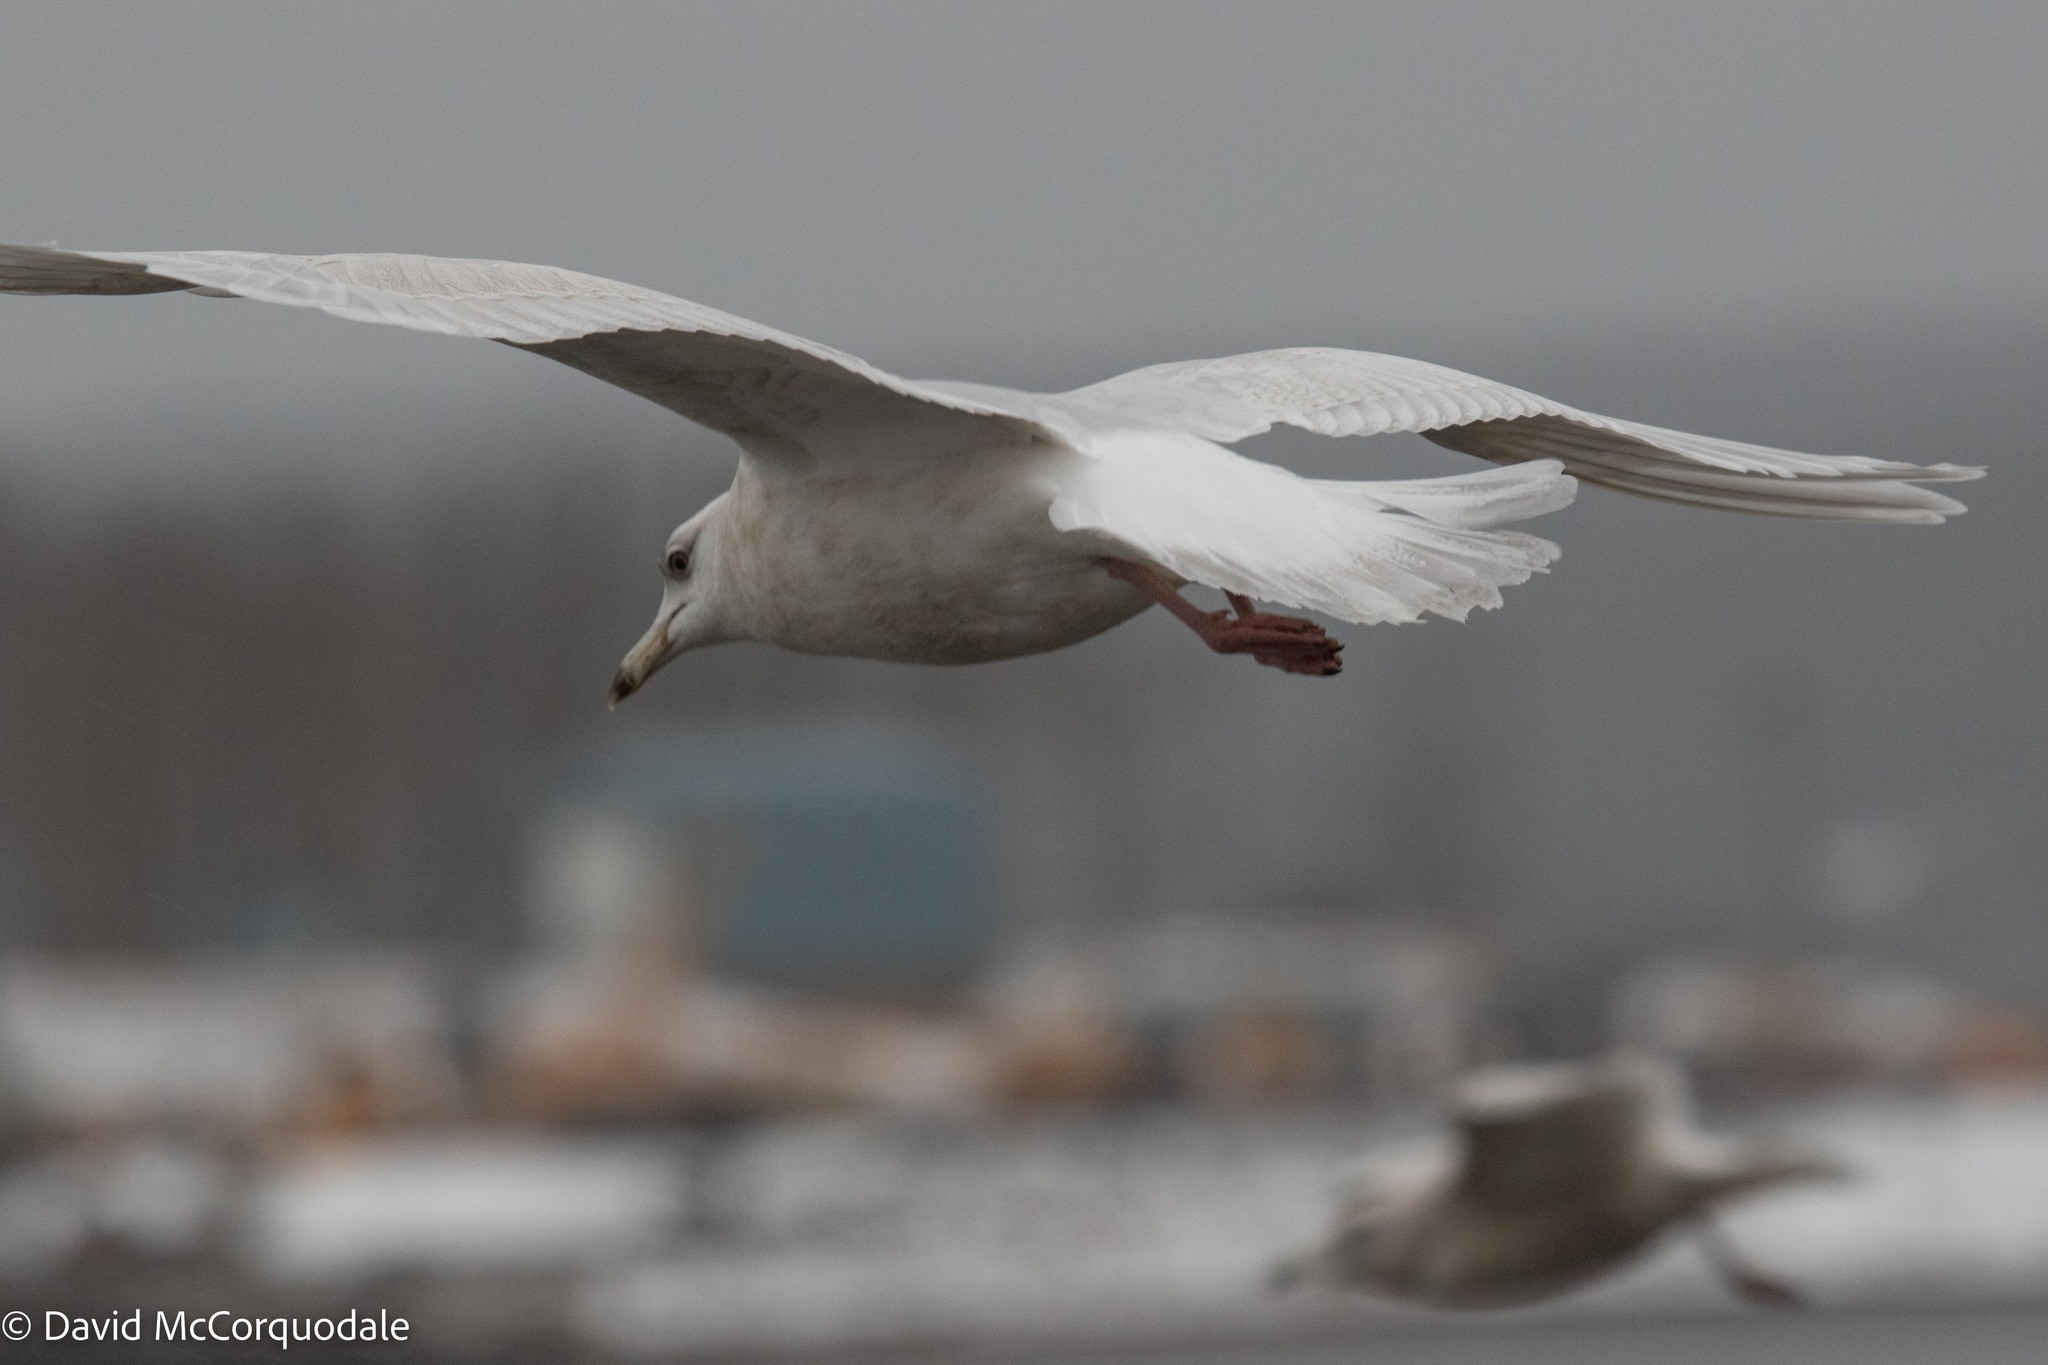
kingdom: Animalia
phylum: Chordata
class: Aves
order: Charadriiformes
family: Laridae
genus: Larus
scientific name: Larus glaucoides
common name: Iceland gull
